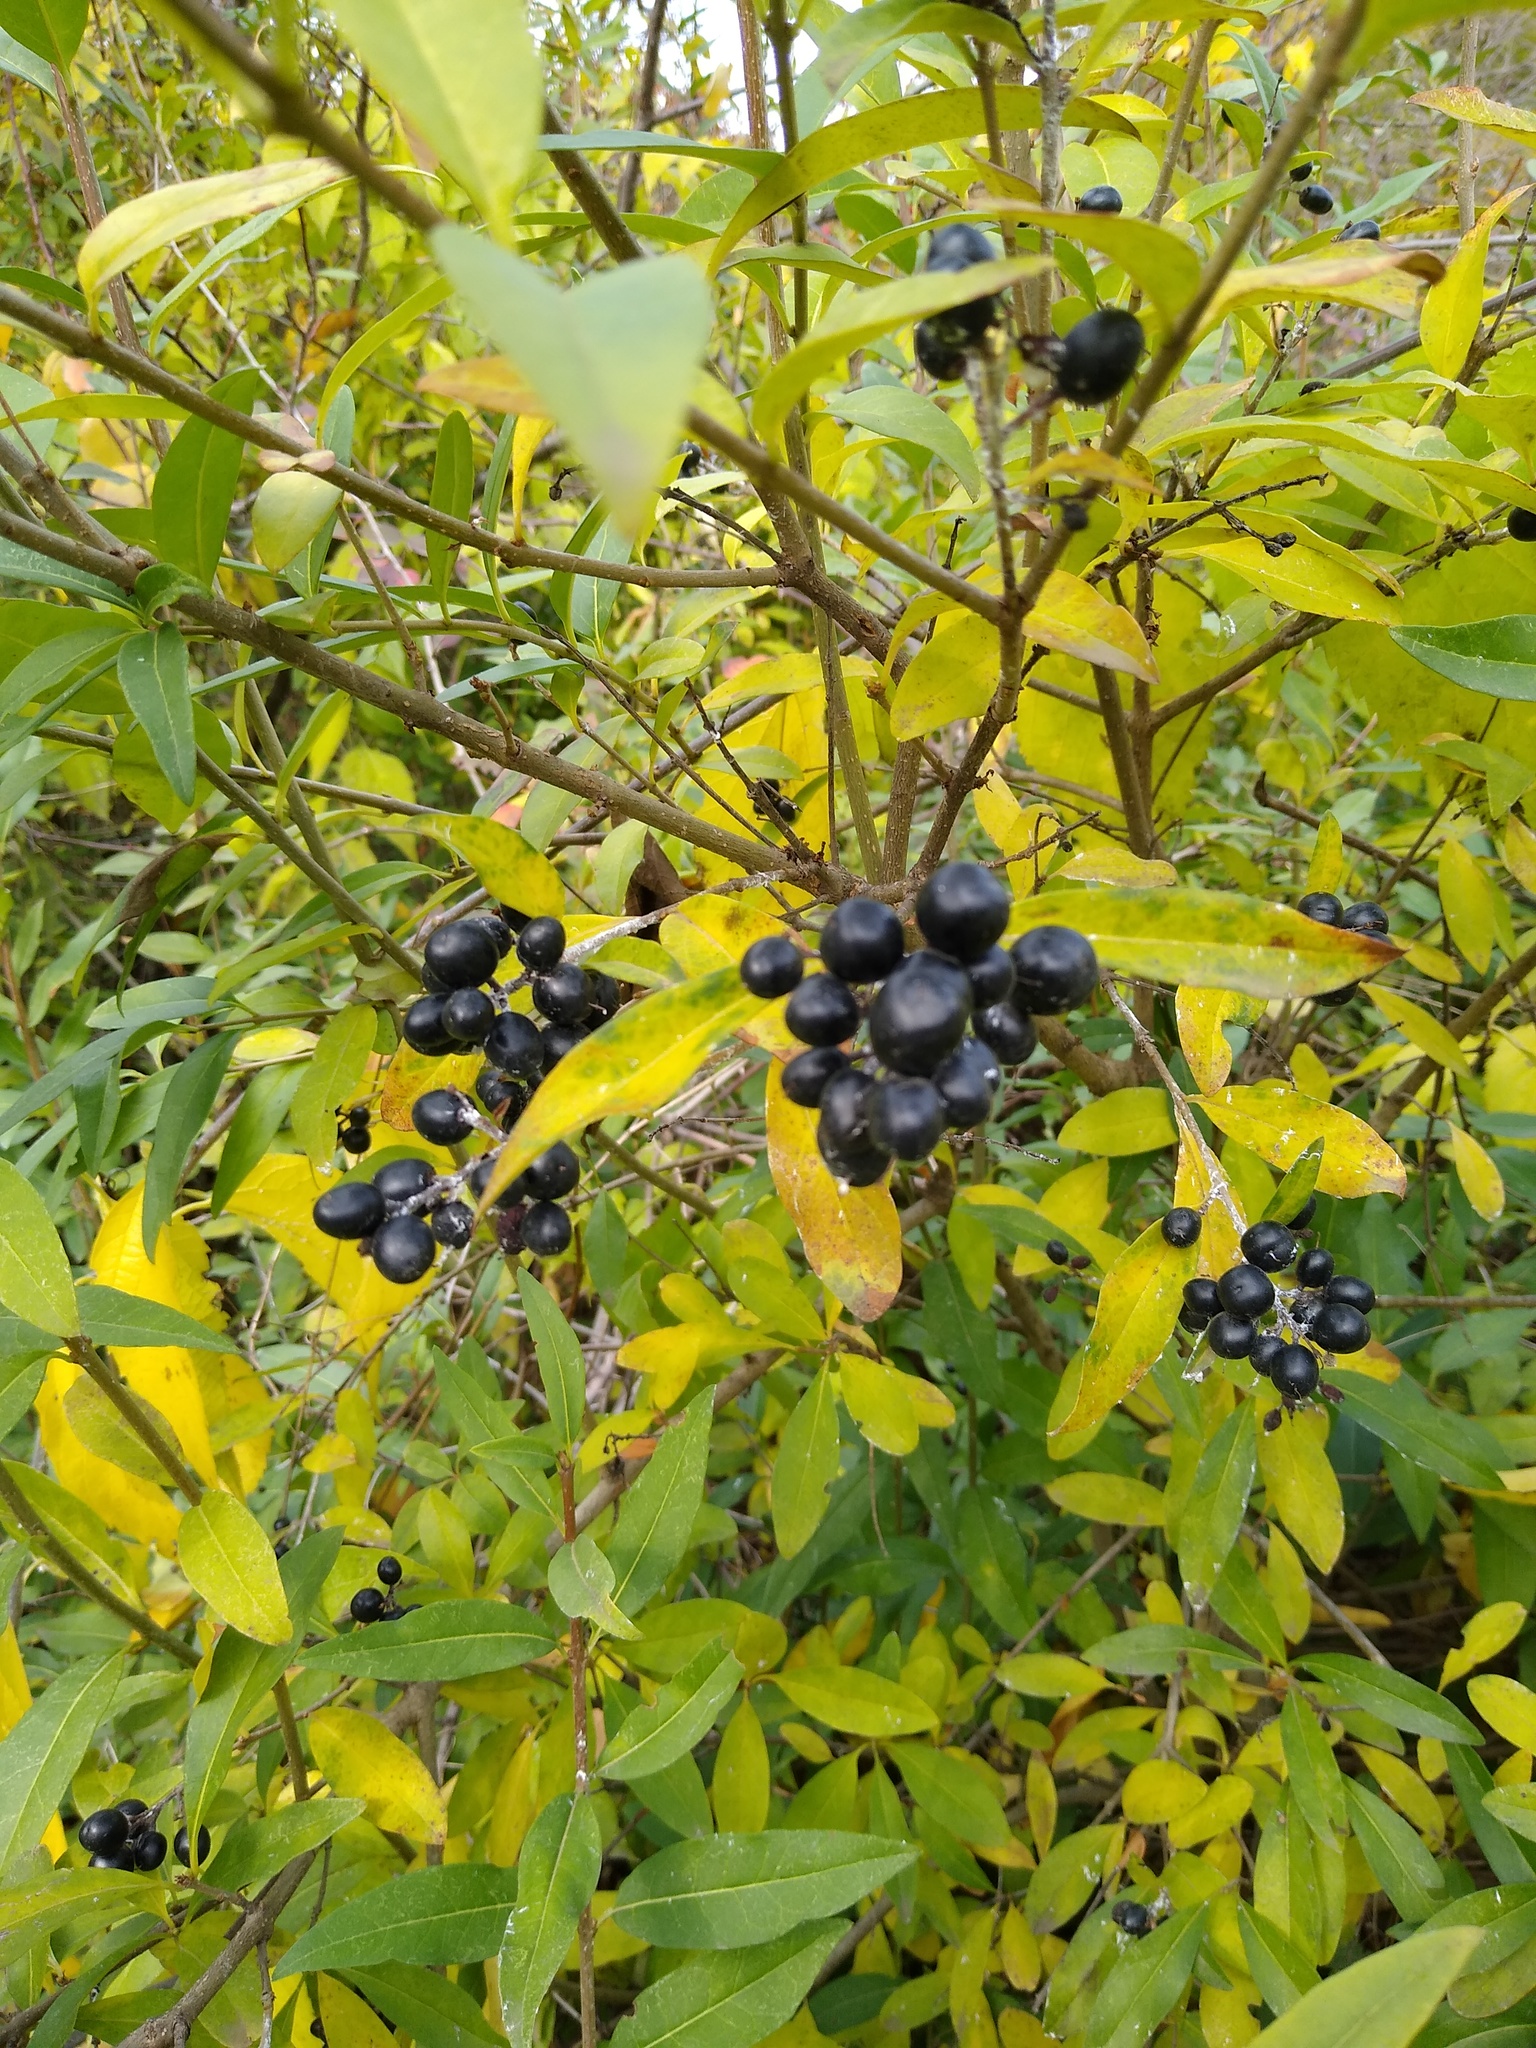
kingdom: Plantae
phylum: Tracheophyta
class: Magnoliopsida
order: Lamiales
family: Oleaceae
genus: Ligustrum
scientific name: Ligustrum vulgare
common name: Wild privet
